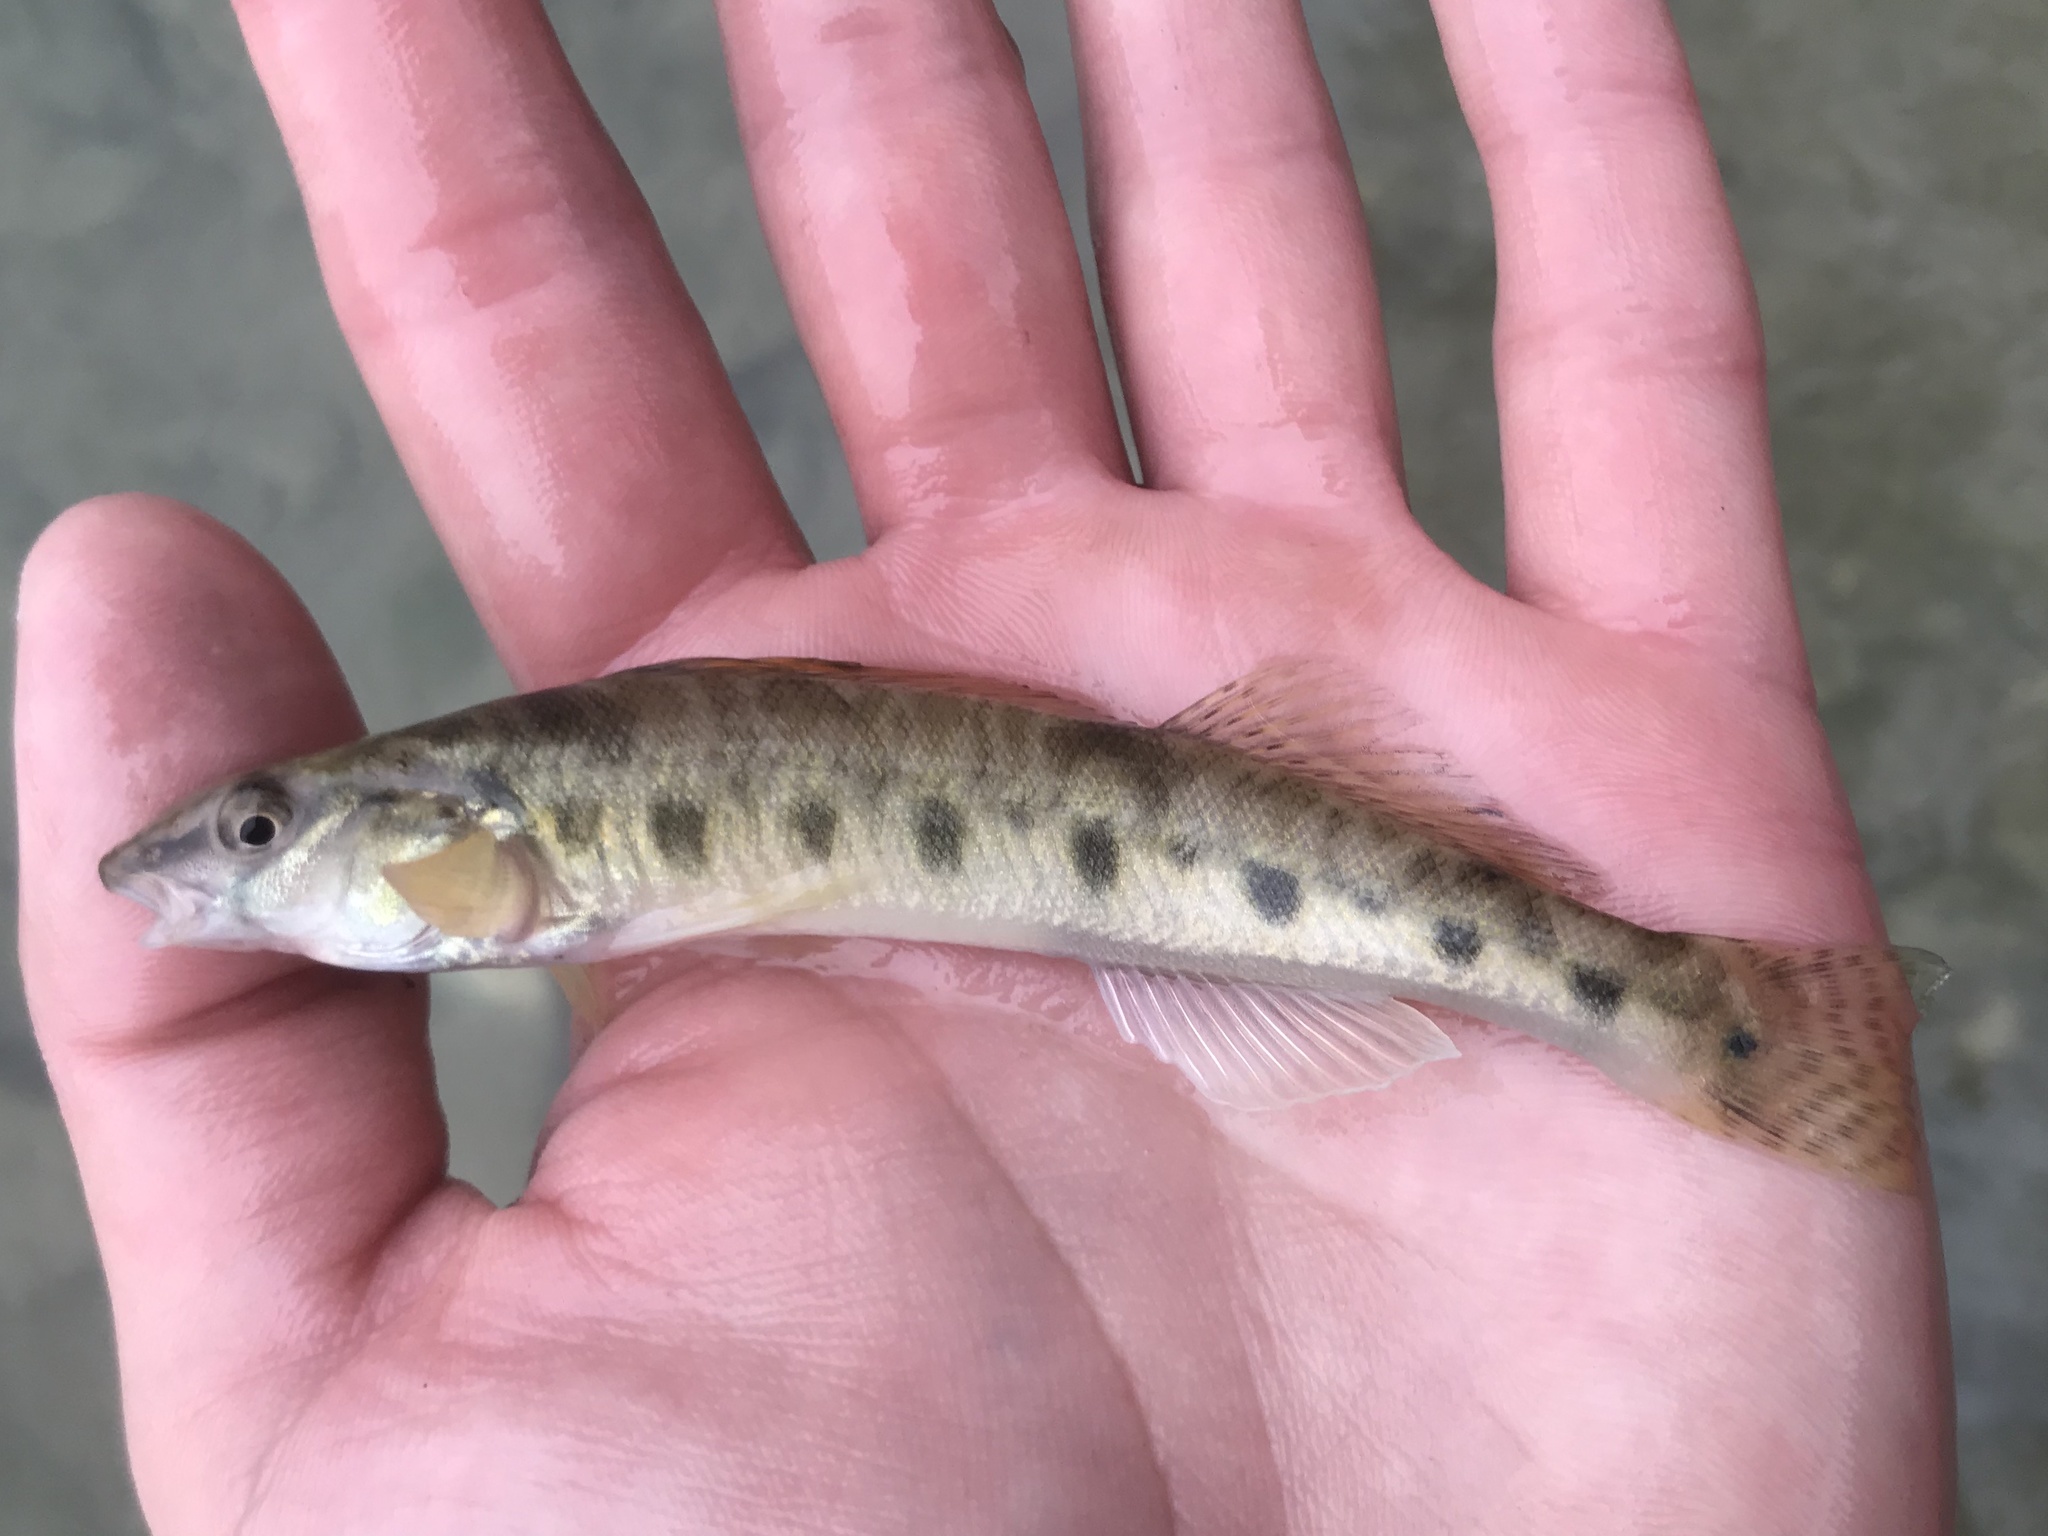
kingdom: Animalia
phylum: Chordata
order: Perciformes
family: Percidae
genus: Percina
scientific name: Percina carbonaria
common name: Texas logperch
